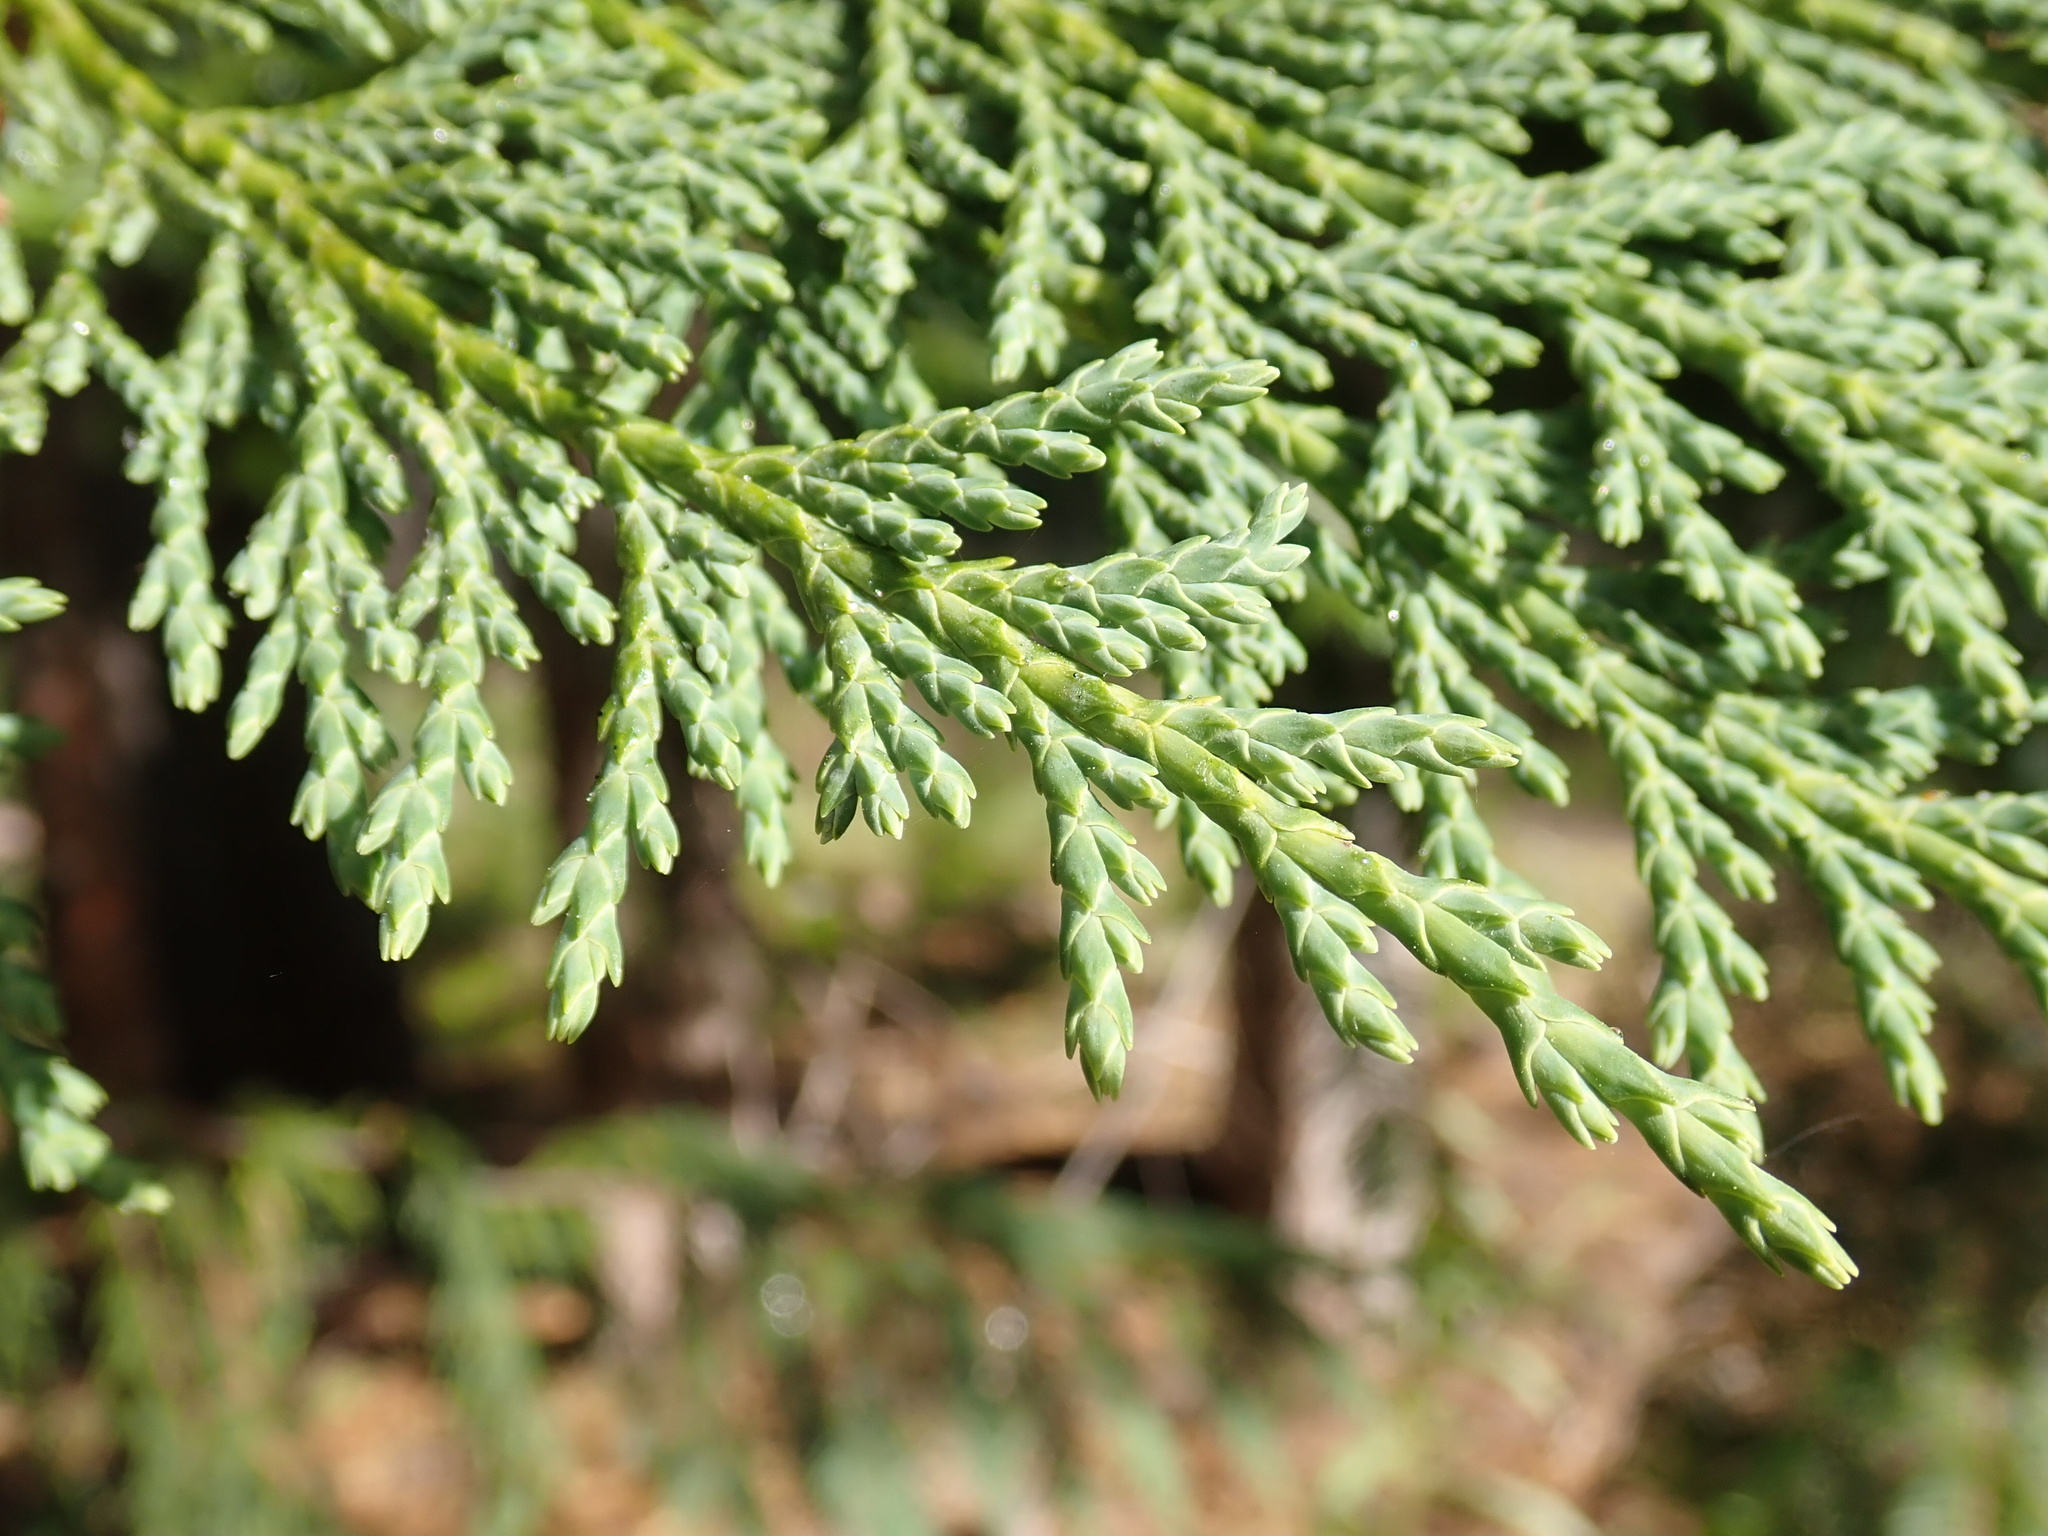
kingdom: Plantae
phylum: Tracheophyta
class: Pinopsida
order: Pinales
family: Cupressaceae
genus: Xanthocyparis
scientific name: Xanthocyparis nootkatensis
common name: Nootka cypress
